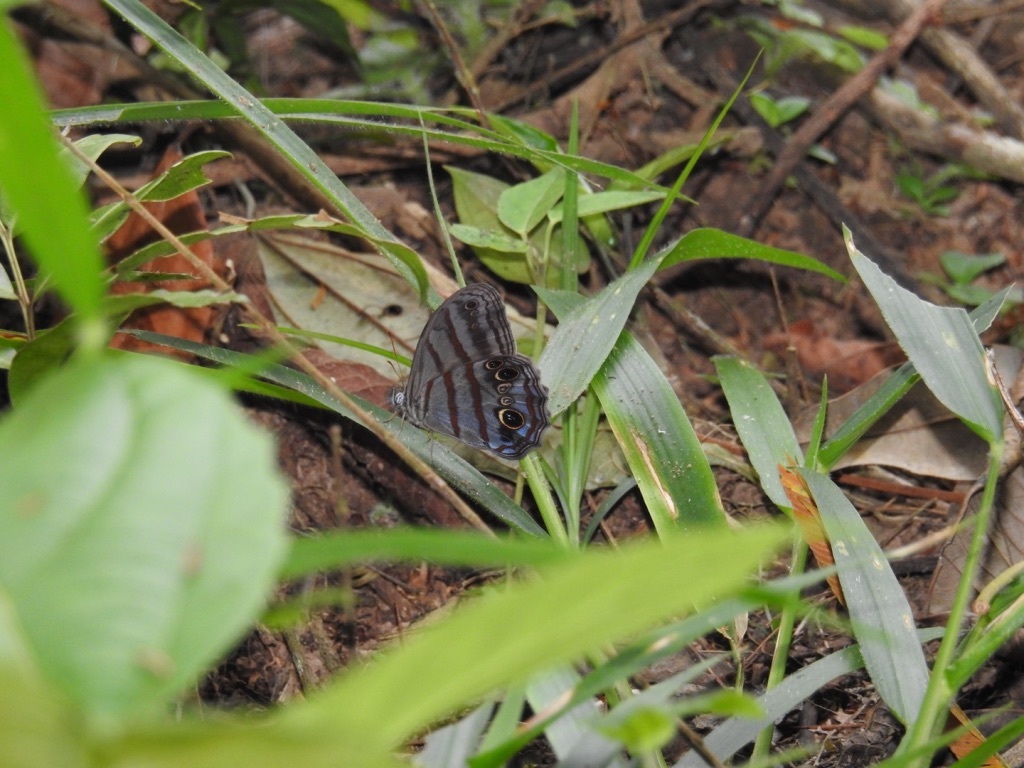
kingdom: Animalia
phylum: Arthropoda
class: Insecta
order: Lepidoptera
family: Nymphalidae
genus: Magneuptychia
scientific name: Magneuptychia libye
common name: Blue-gray satyr
